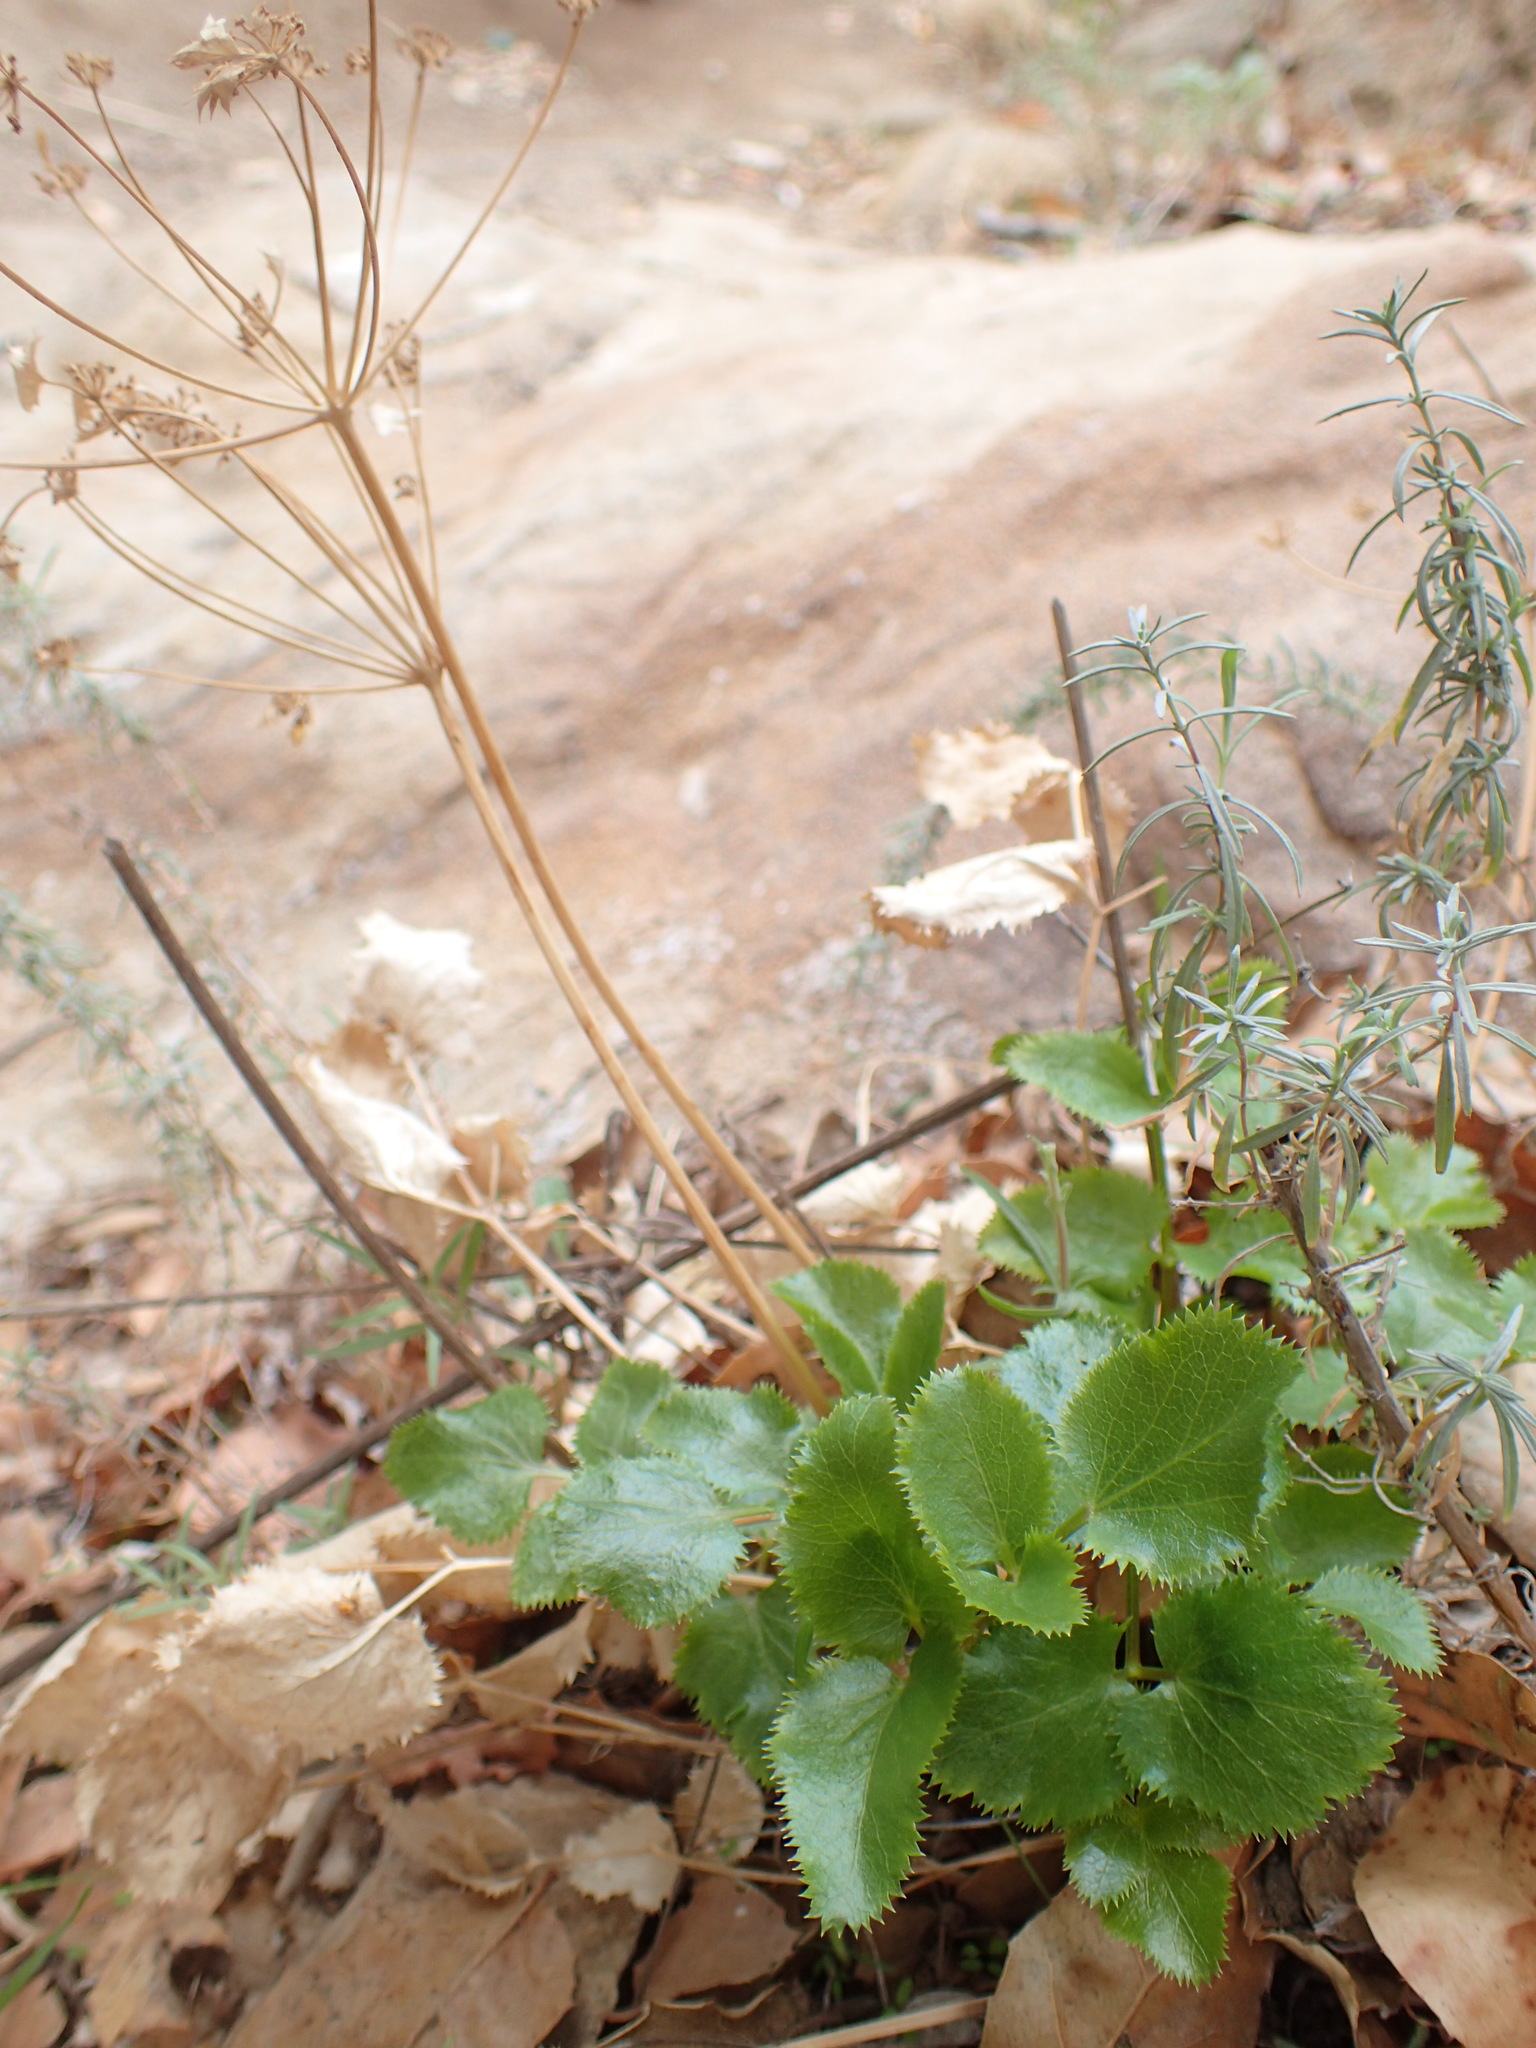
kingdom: Plantae
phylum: Tracheophyta
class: Magnoliopsida
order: Apiales
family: Apiaceae
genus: Tauschia
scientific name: Tauschia arguta
